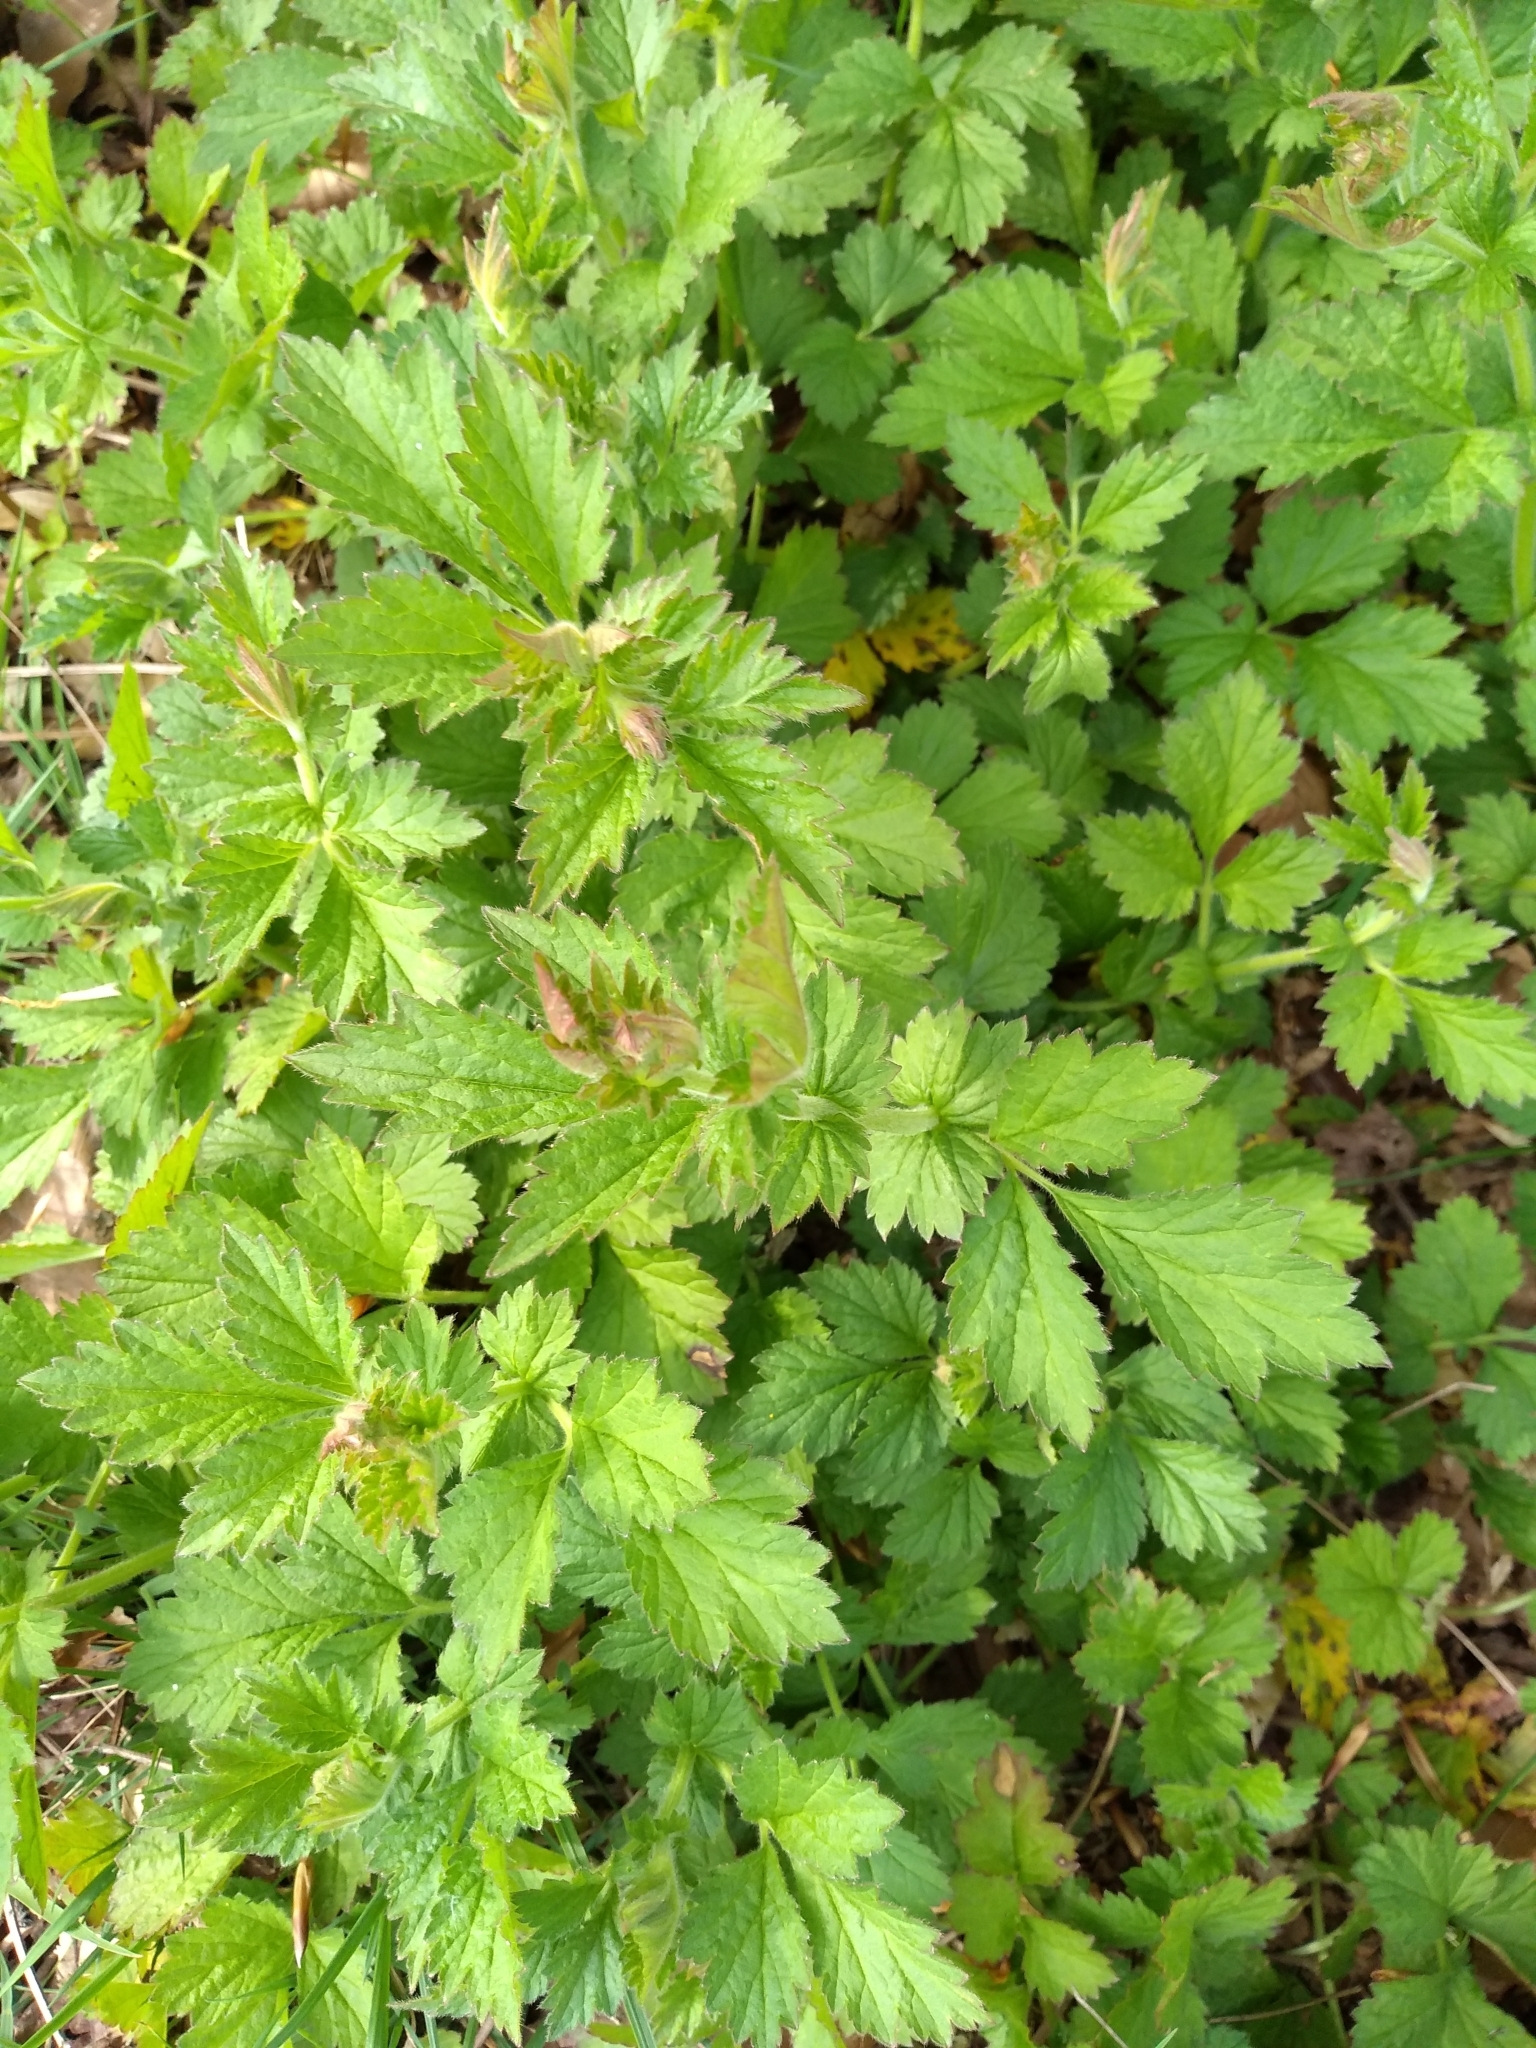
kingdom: Plantae
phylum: Tracheophyta
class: Magnoliopsida
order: Rosales
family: Rosaceae
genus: Geum
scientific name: Geum urbanum
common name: Wood avens
